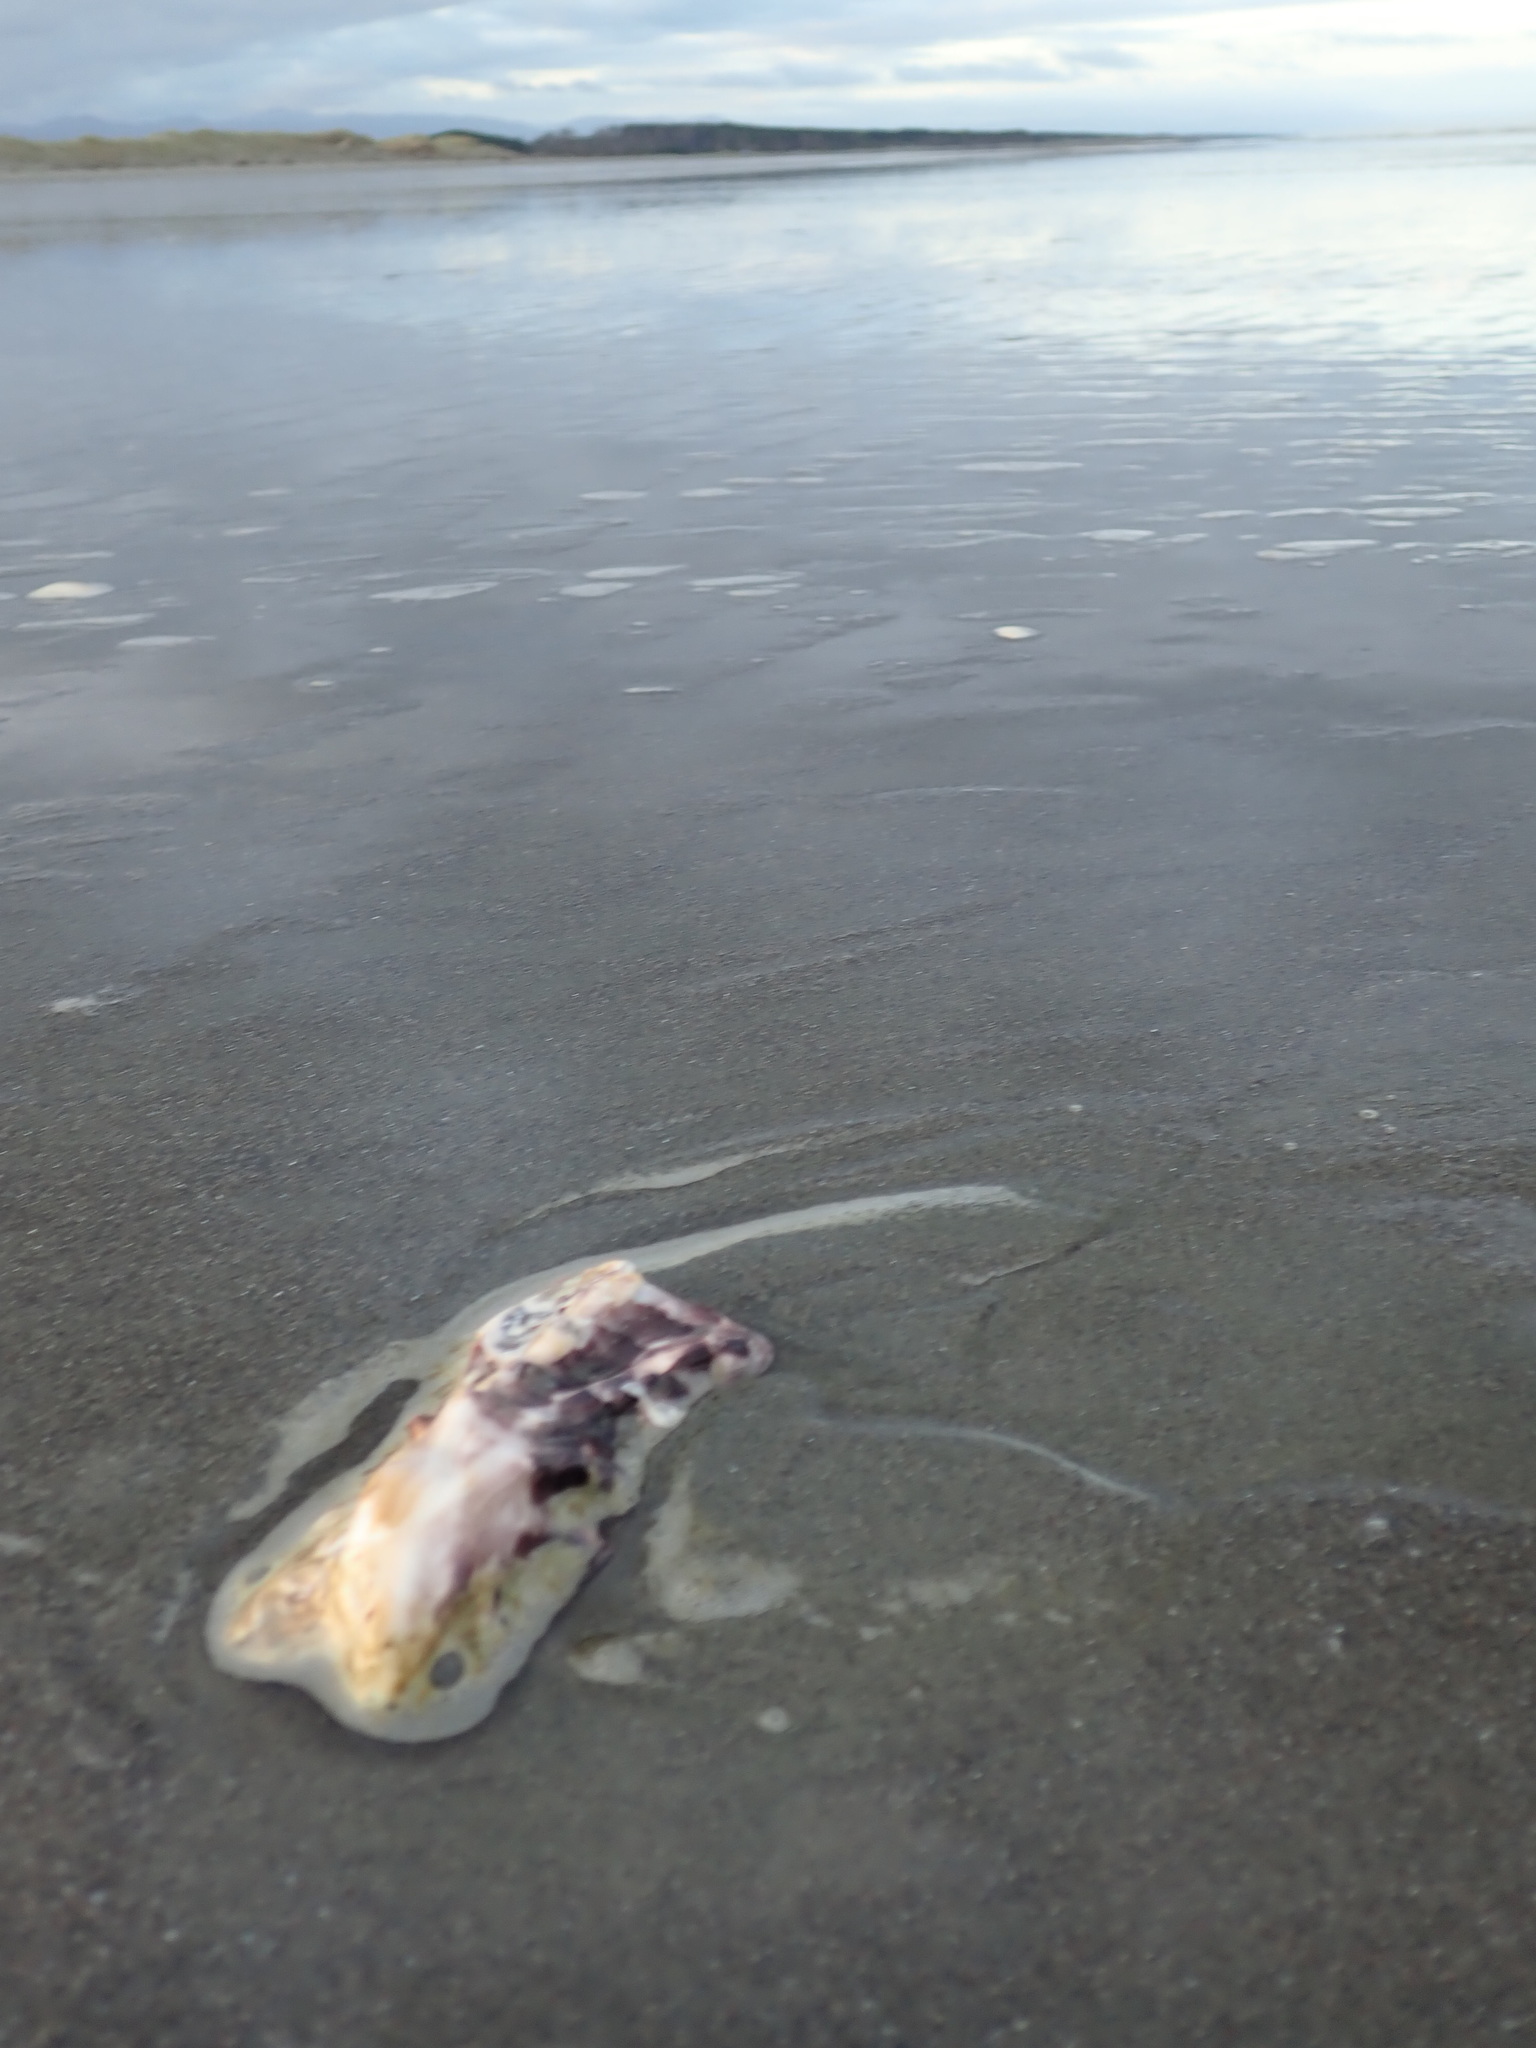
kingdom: Animalia
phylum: Mollusca
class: Bivalvia
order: Ostreida
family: Ostreidae
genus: Magallana
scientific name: Magallana gigas
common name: Pacific oyster
